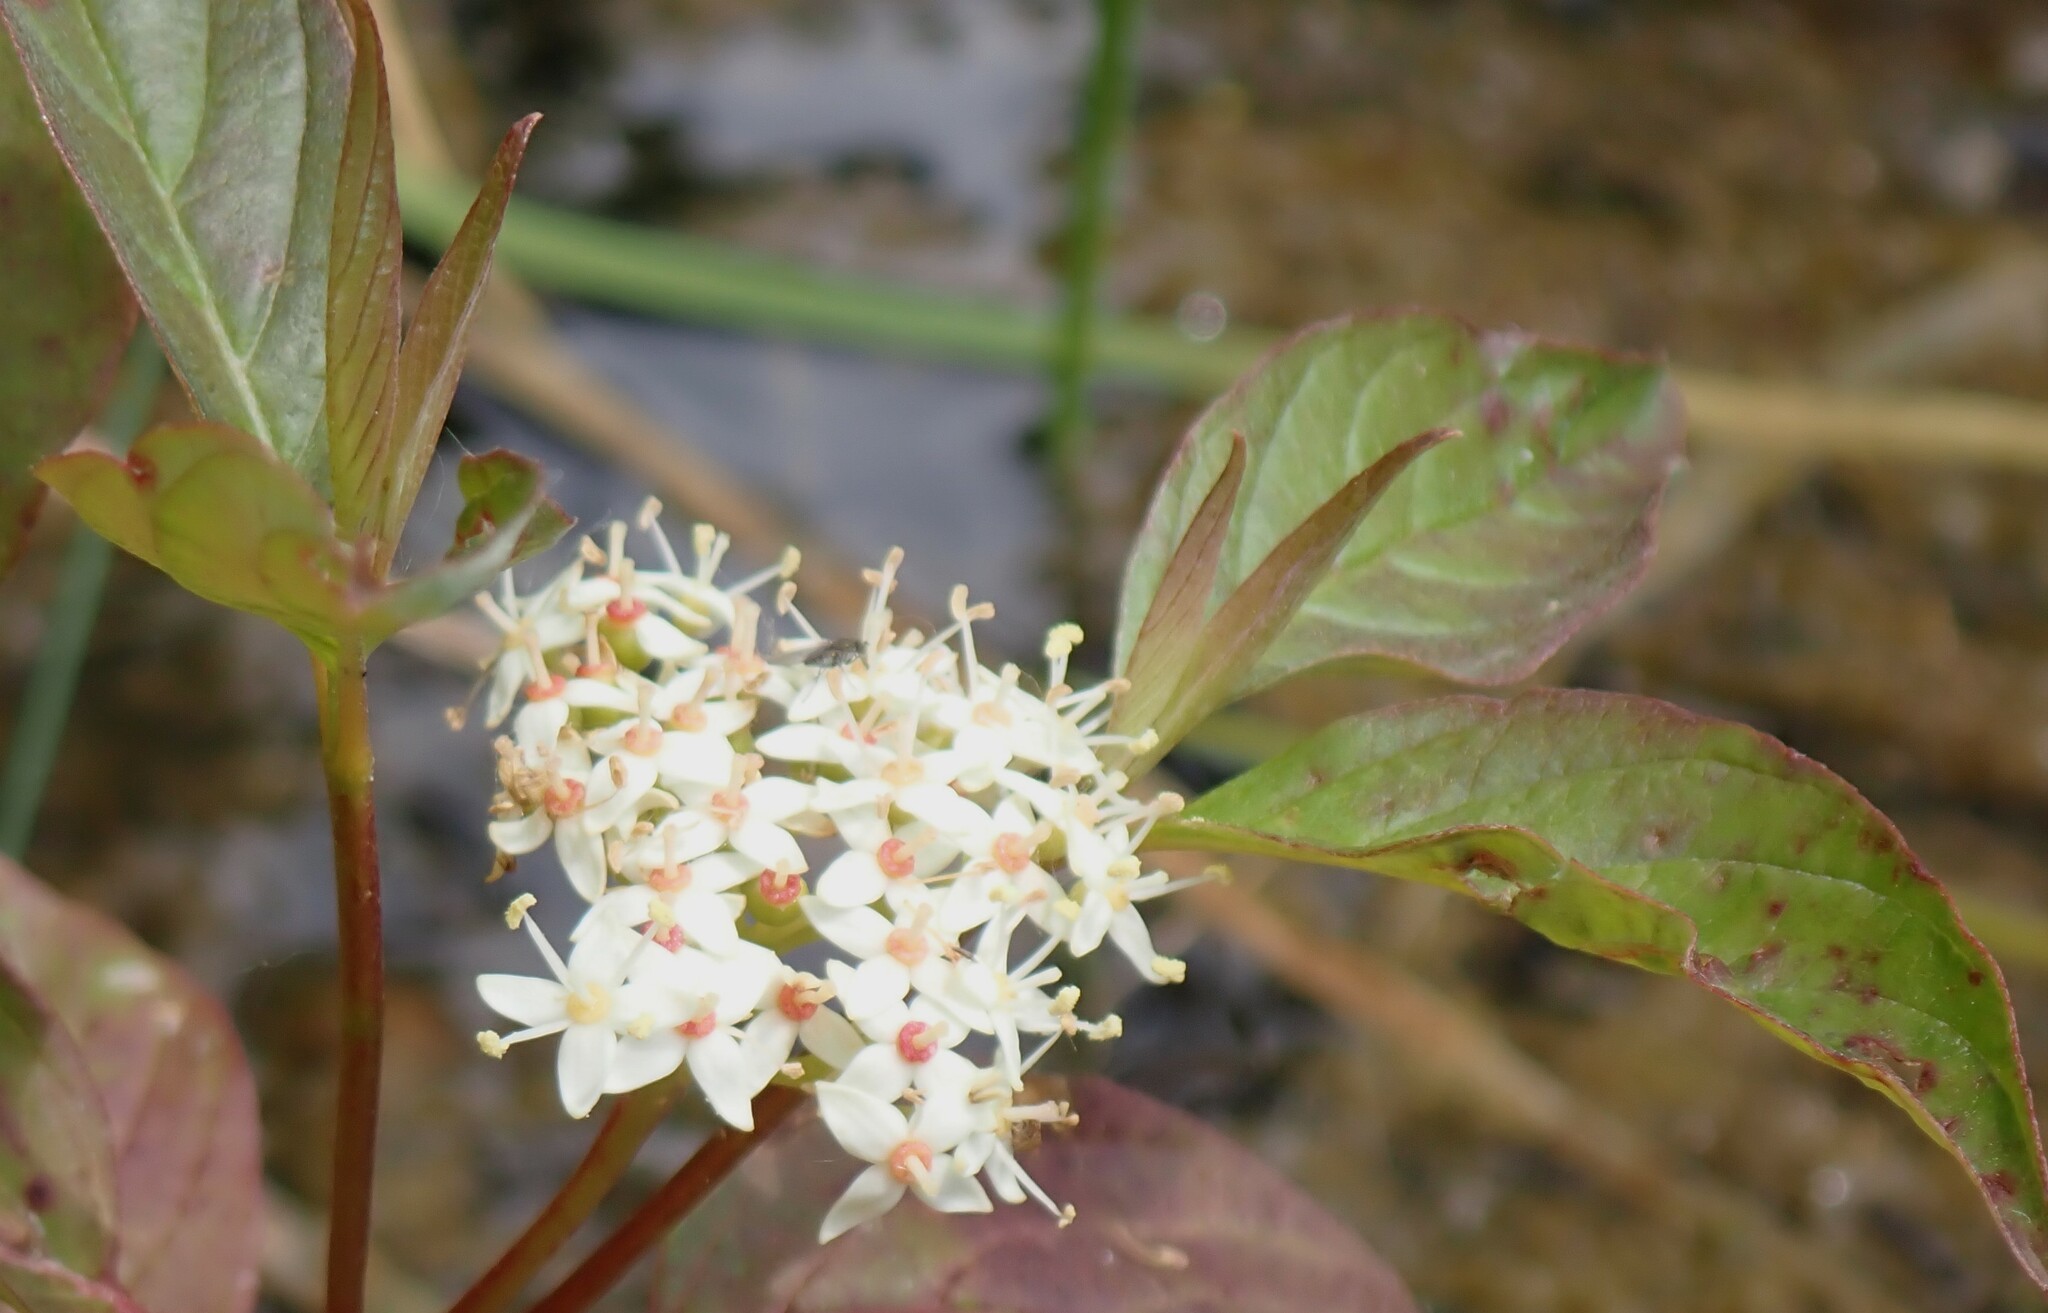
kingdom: Plantae
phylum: Tracheophyta
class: Magnoliopsida
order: Cornales
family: Cornaceae
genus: Cornus
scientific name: Cornus sericea
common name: Red-osier dogwood
